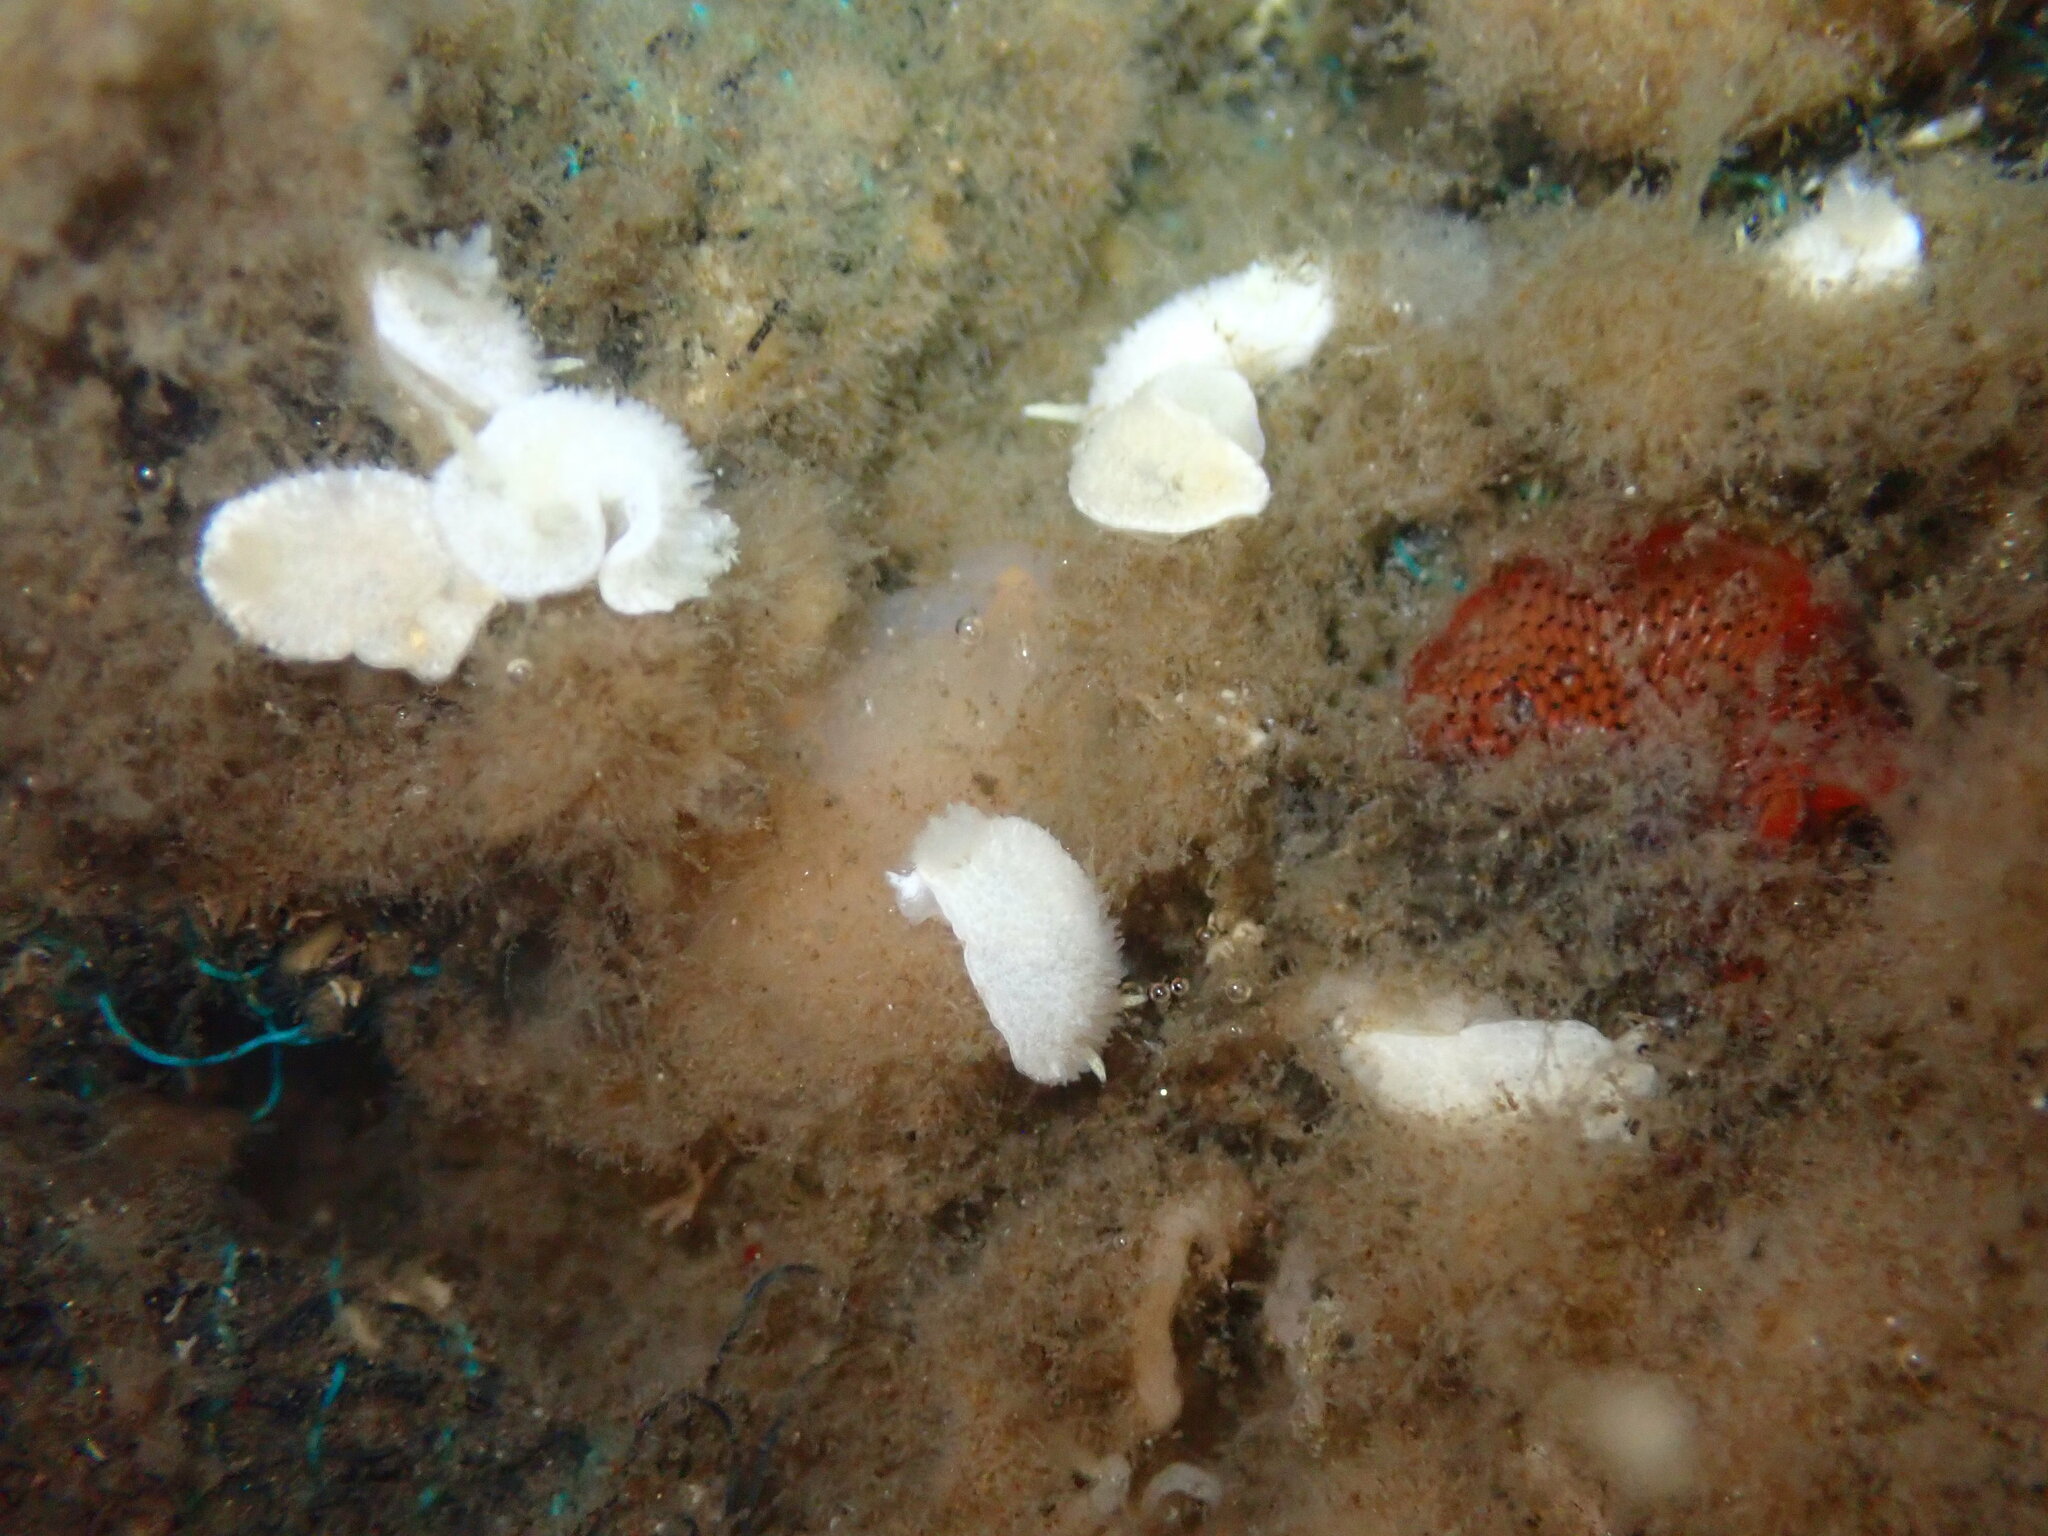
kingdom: Animalia
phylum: Mollusca
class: Gastropoda
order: Nudibranchia
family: Calycidorididae
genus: Diaphorodoris
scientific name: Diaphorodoris lirulatocauda
